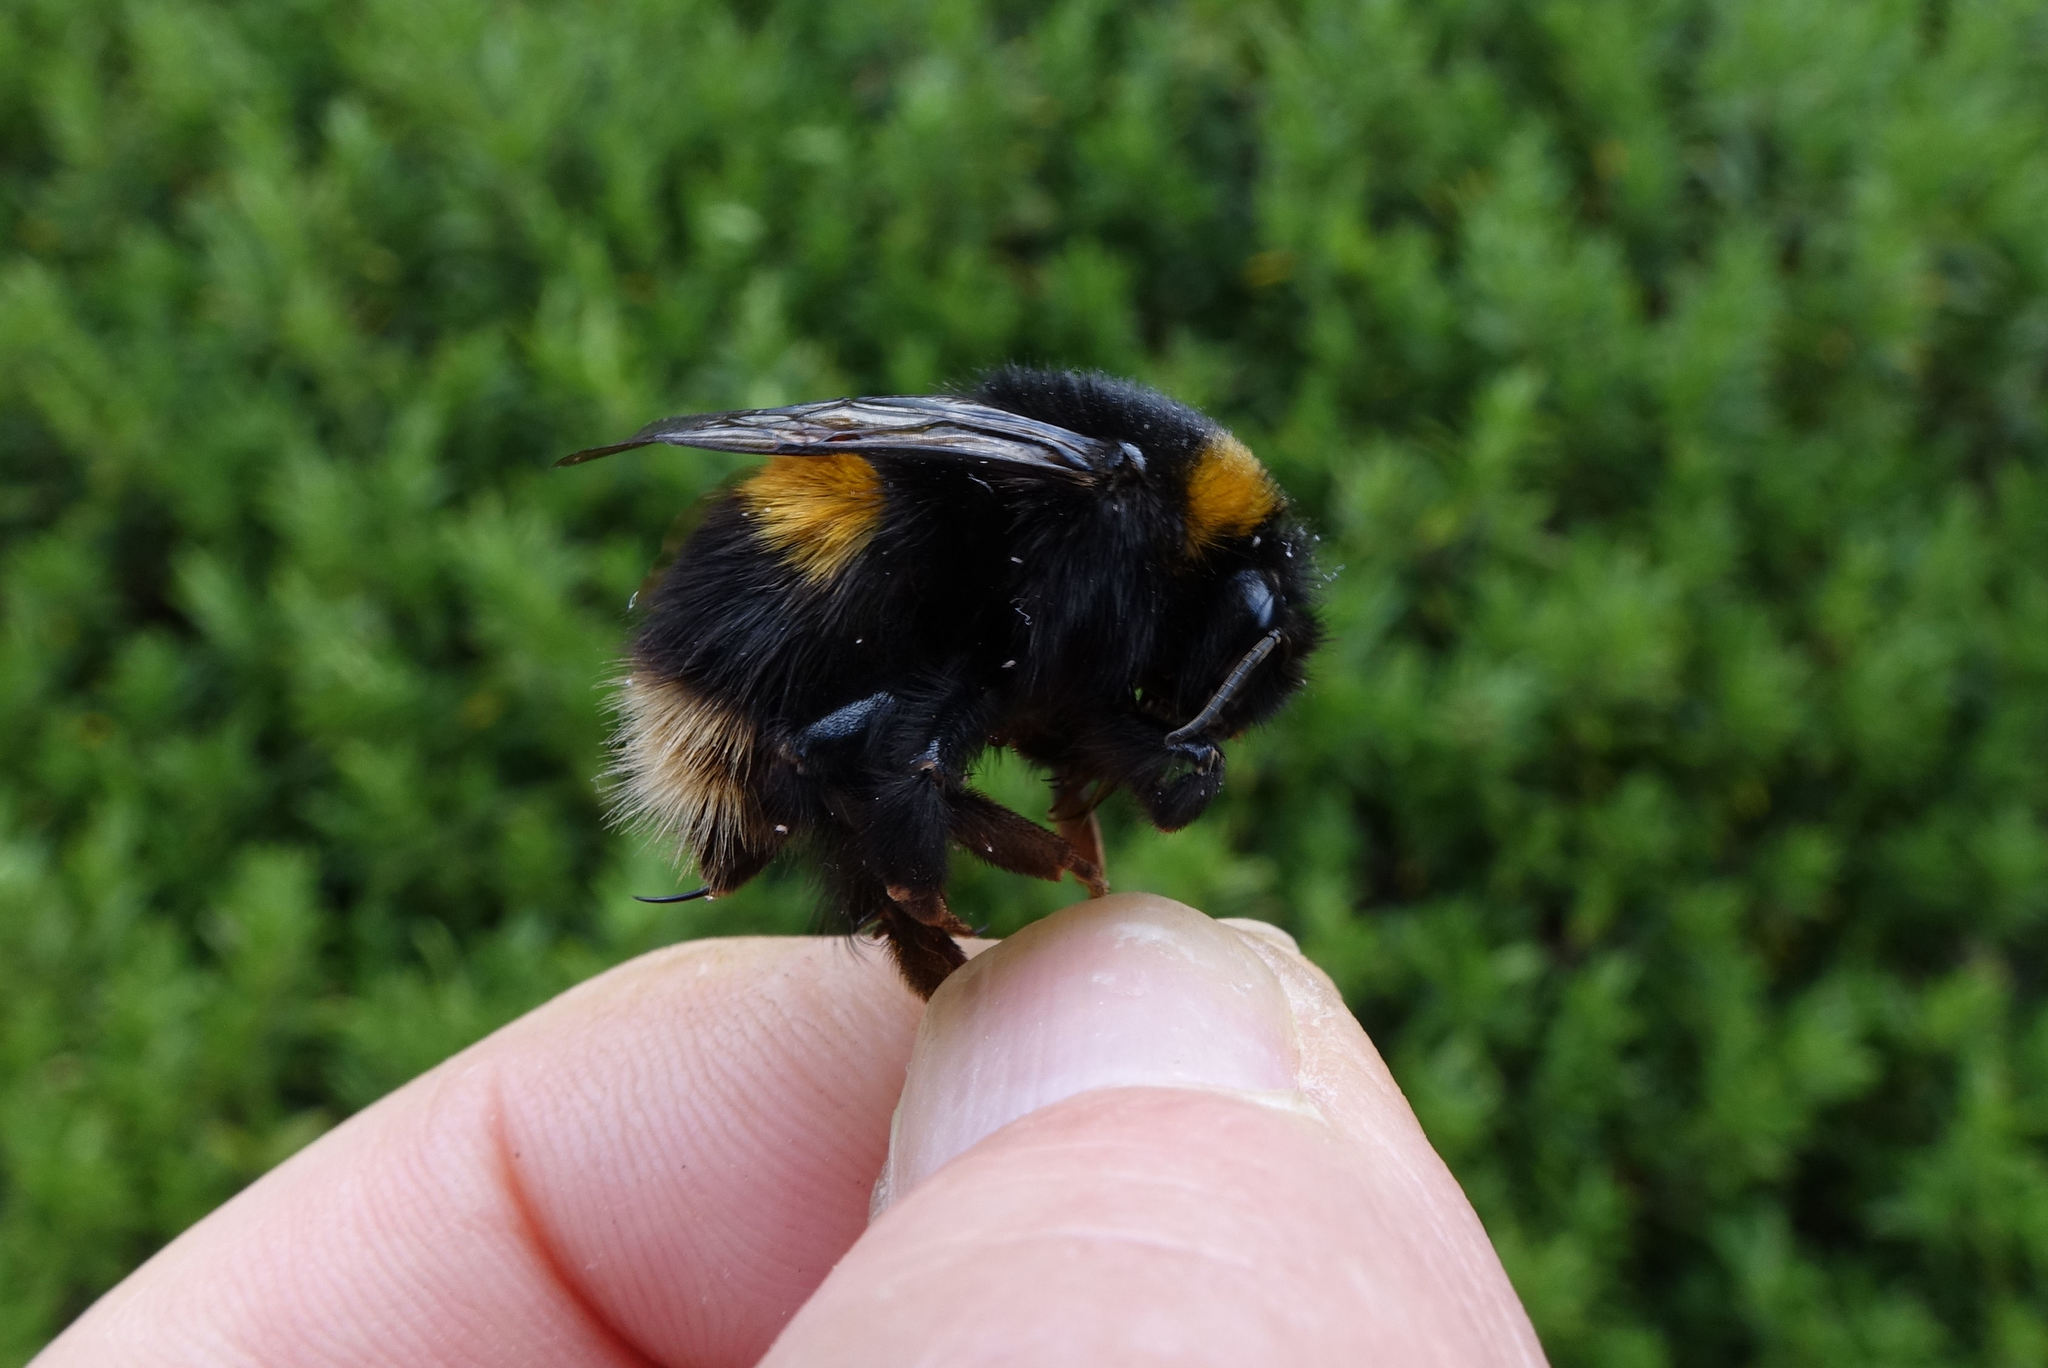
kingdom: Animalia
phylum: Arthropoda
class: Insecta
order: Hymenoptera
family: Apidae
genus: Bombus
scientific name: Bombus terrestris
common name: Buff-tailed bumblebee
